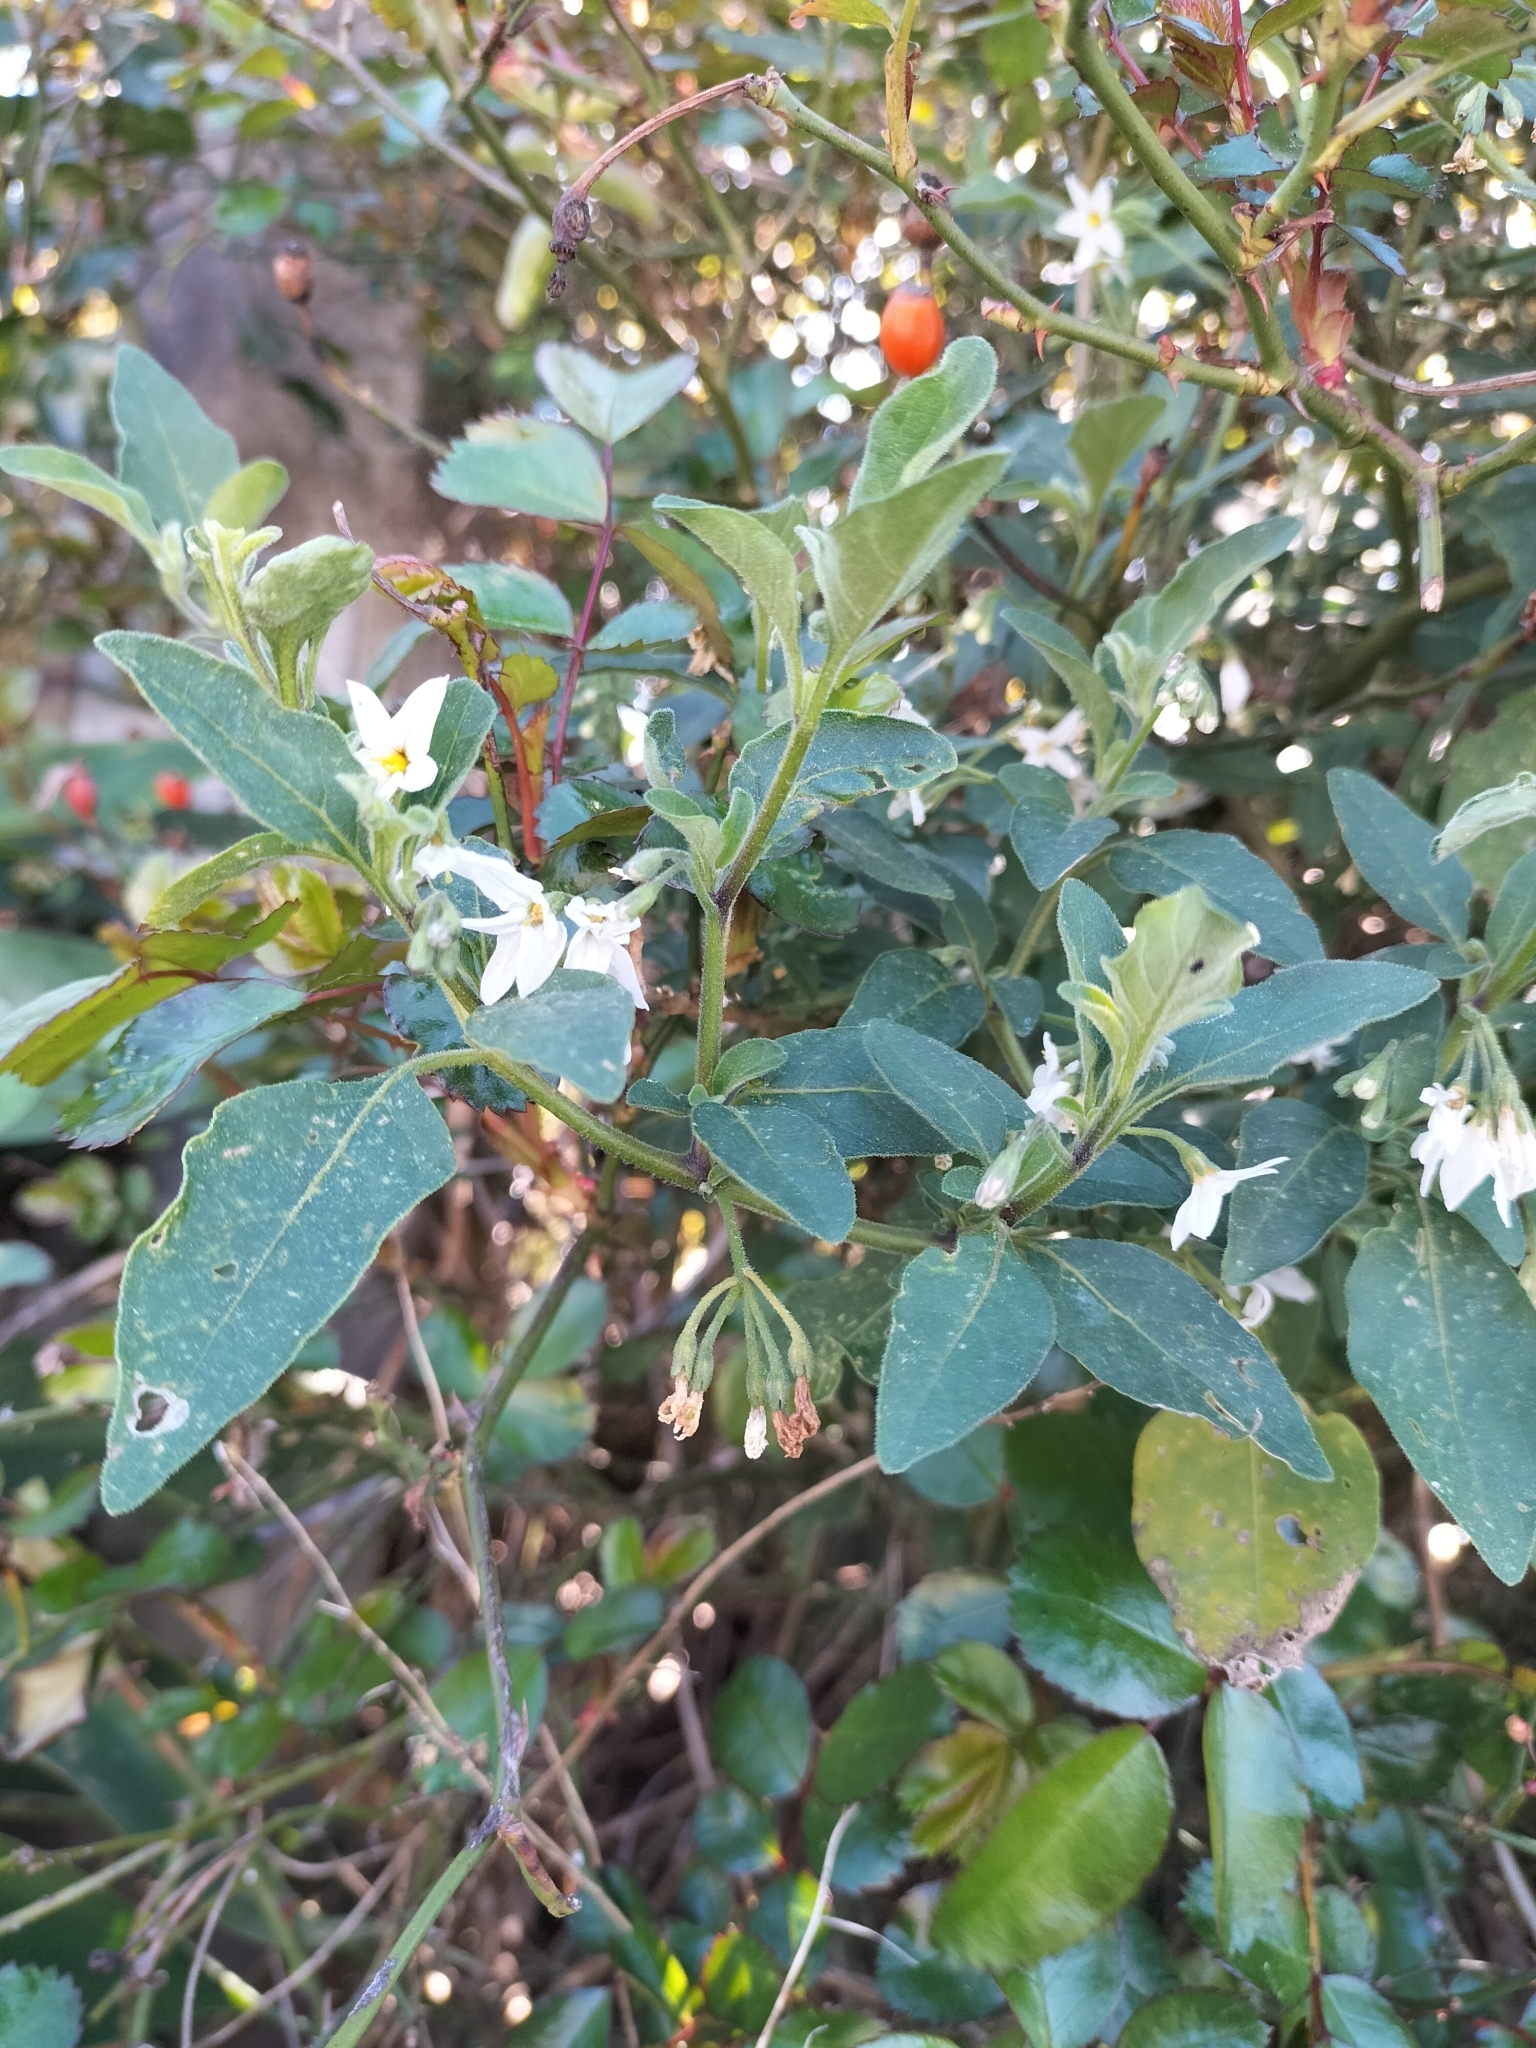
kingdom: Plantae
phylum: Tracheophyta
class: Magnoliopsida
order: Solanales
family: Solanaceae
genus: Solanum
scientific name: Solanum chenopodioides
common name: Tall nightshade
